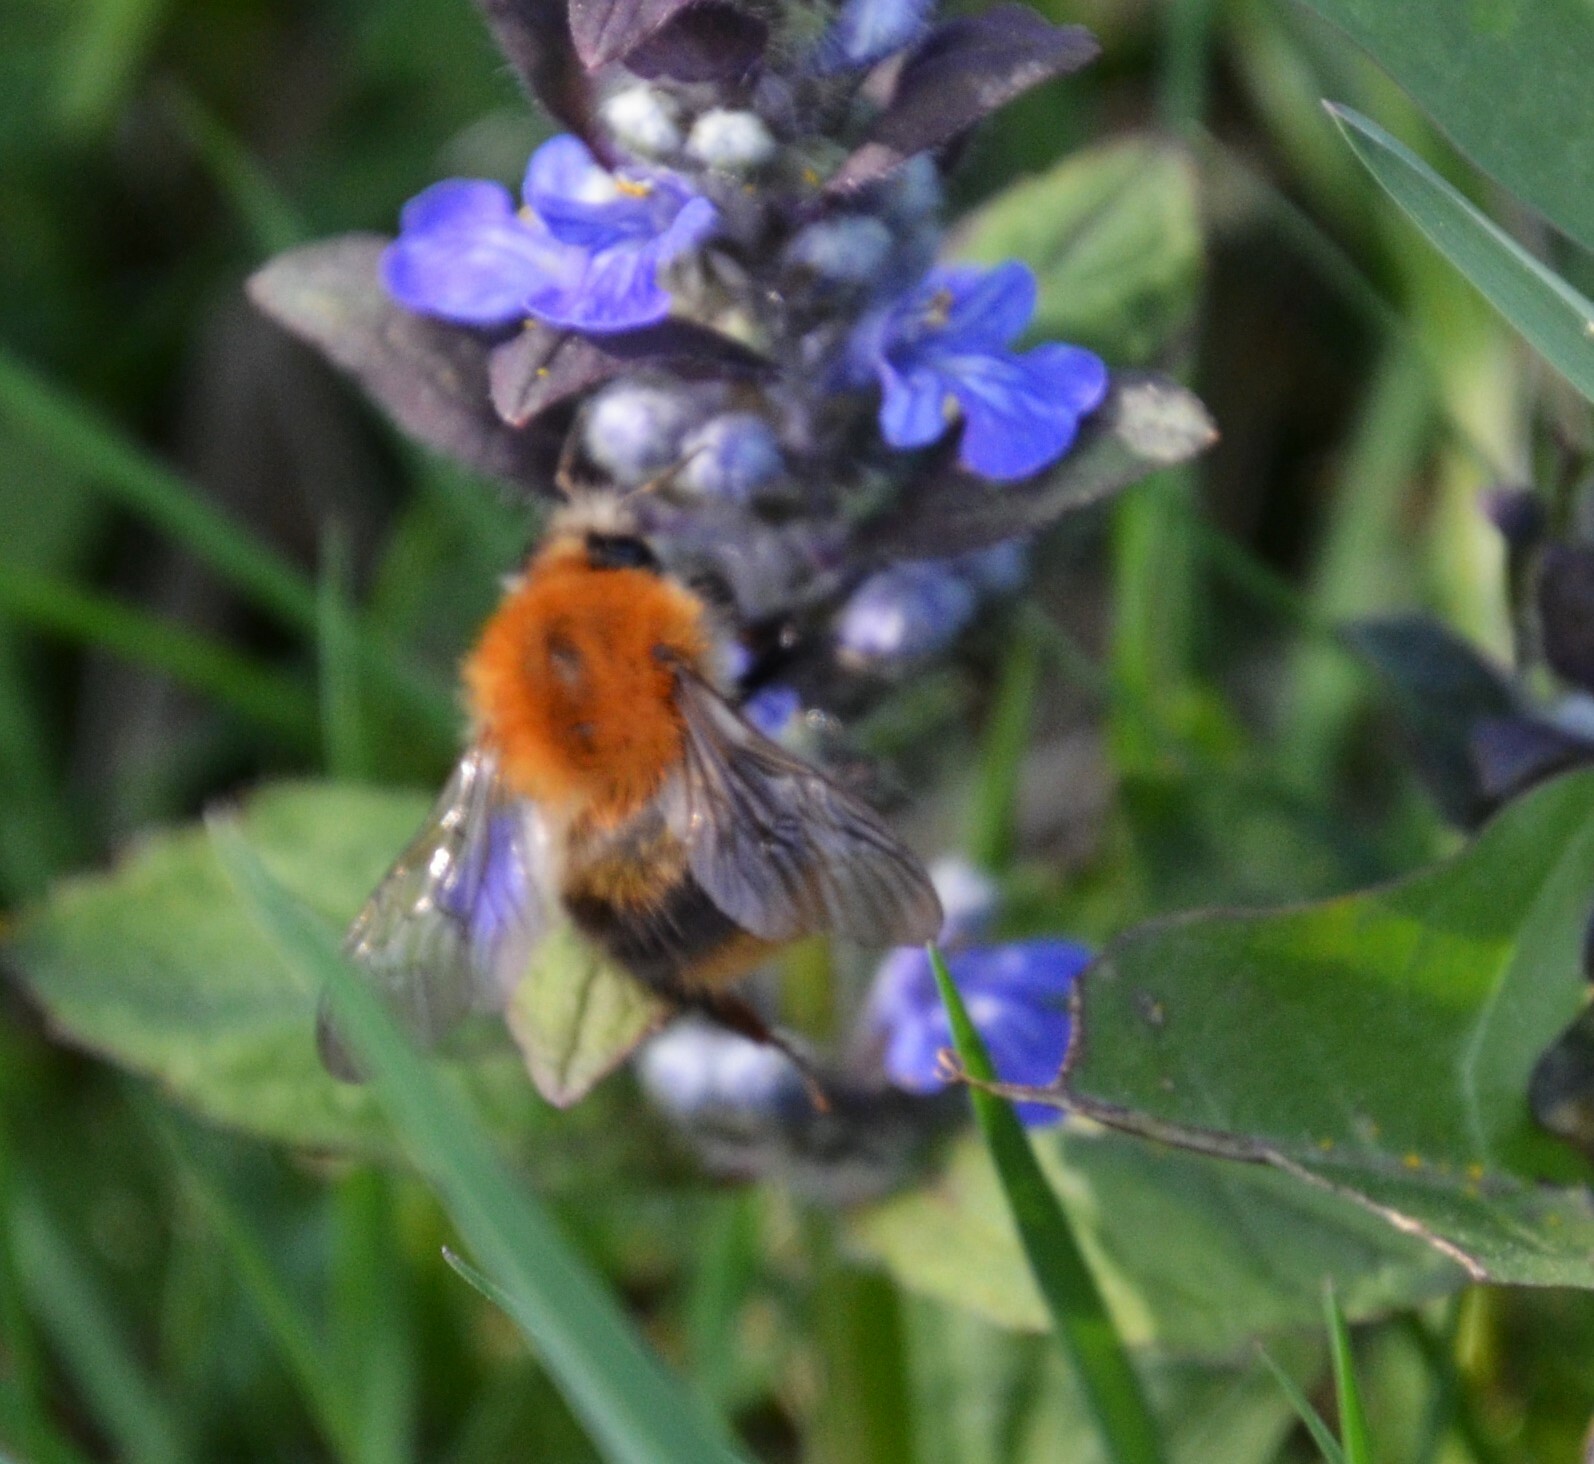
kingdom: Animalia
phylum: Arthropoda
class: Insecta
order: Hymenoptera
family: Apidae
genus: Bombus
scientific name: Bombus pascuorum
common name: Common carder bee
